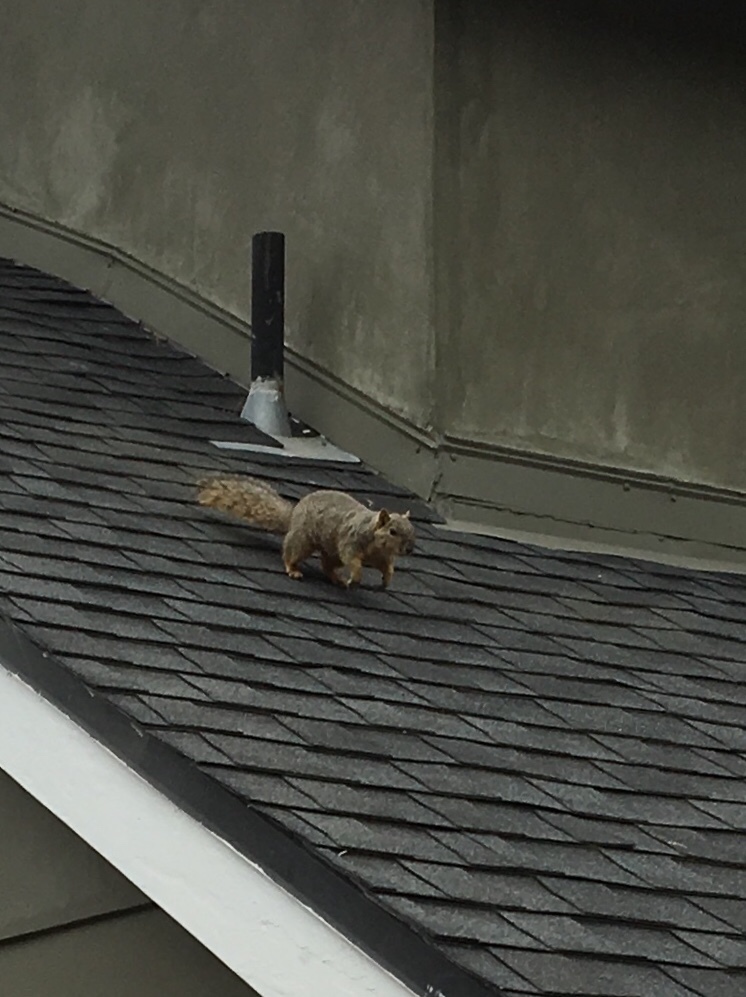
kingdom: Animalia
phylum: Chordata
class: Mammalia
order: Rodentia
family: Sciuridae
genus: Sciurus
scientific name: Sciurus niger
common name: Fox squirrel
